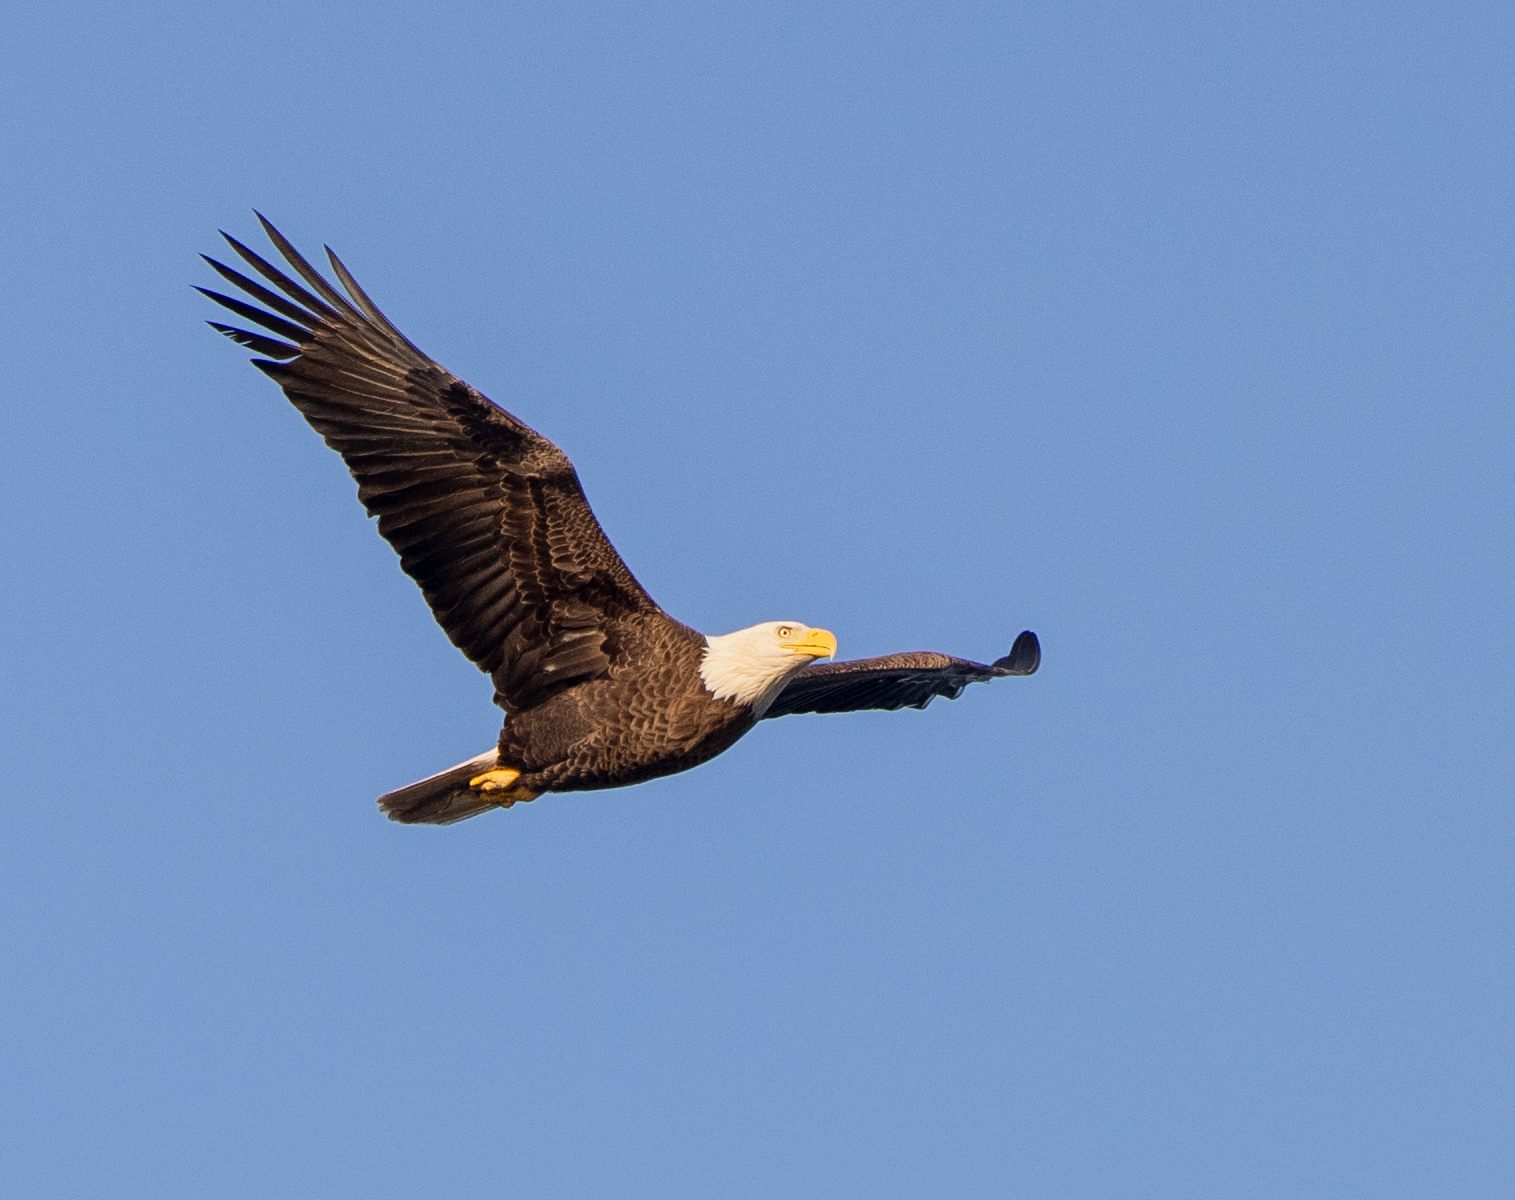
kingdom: Animalia
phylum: Chordata
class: Aves
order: Accipitriformes
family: Accipitridae
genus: Haliaeetus
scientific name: Haliaeetus leucocephalus
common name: Bald eagle
